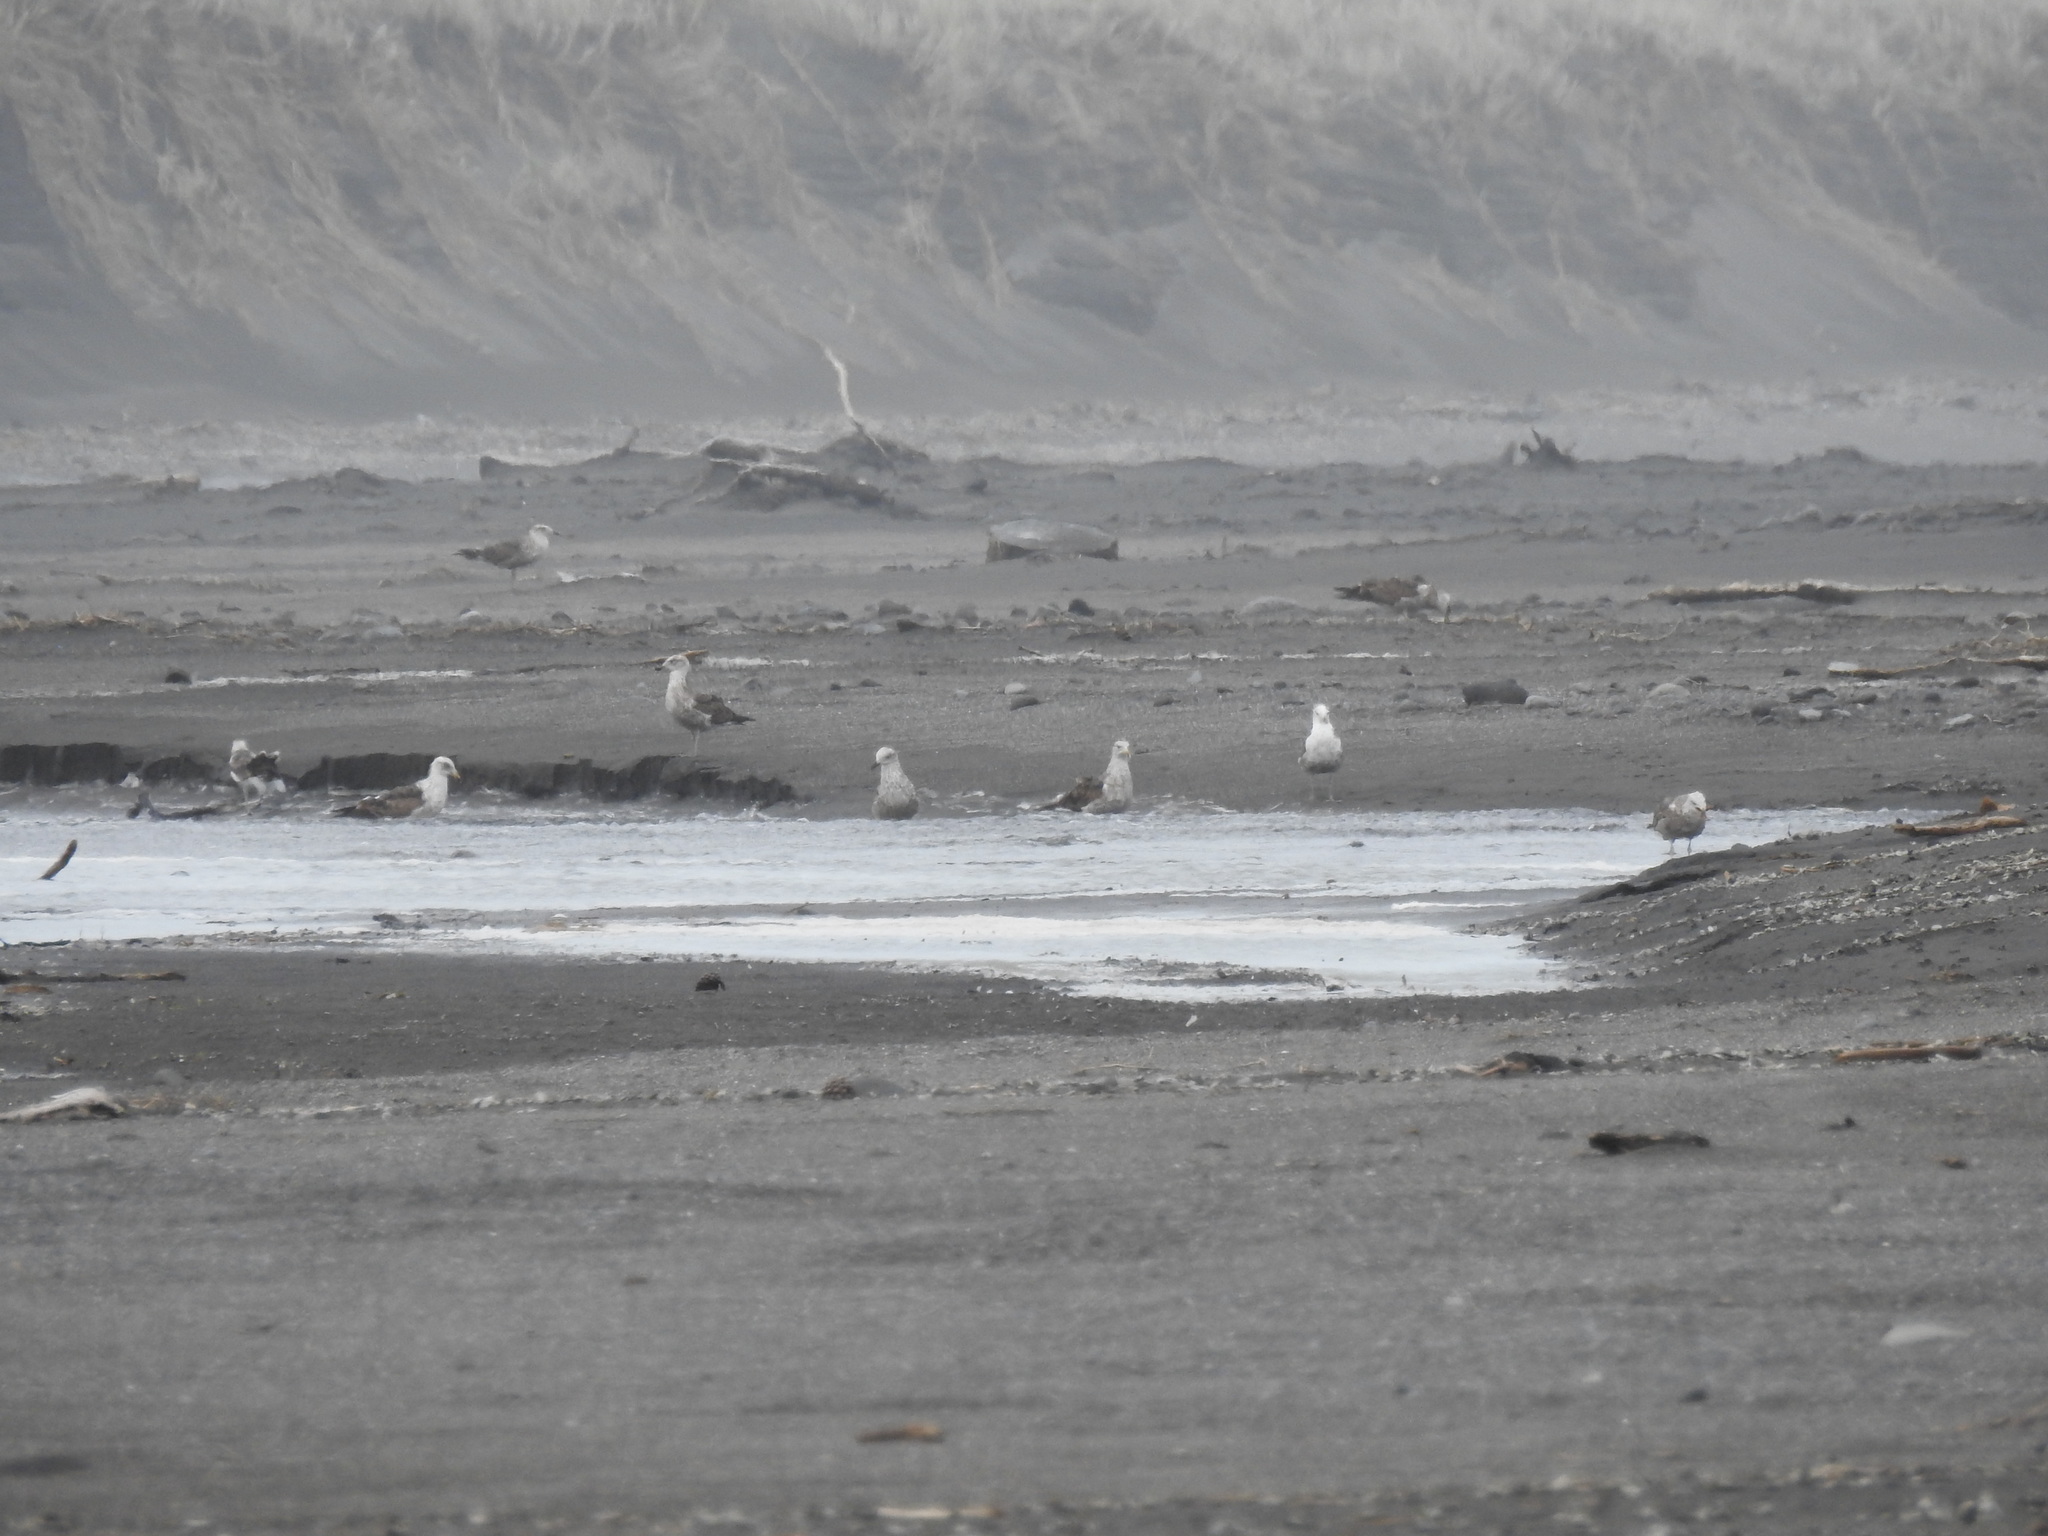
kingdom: Animalia
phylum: Chordata
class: Aves
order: Charadriiformes
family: Laridae
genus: Larus
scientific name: Larus dominicanus
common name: Kelp gull
